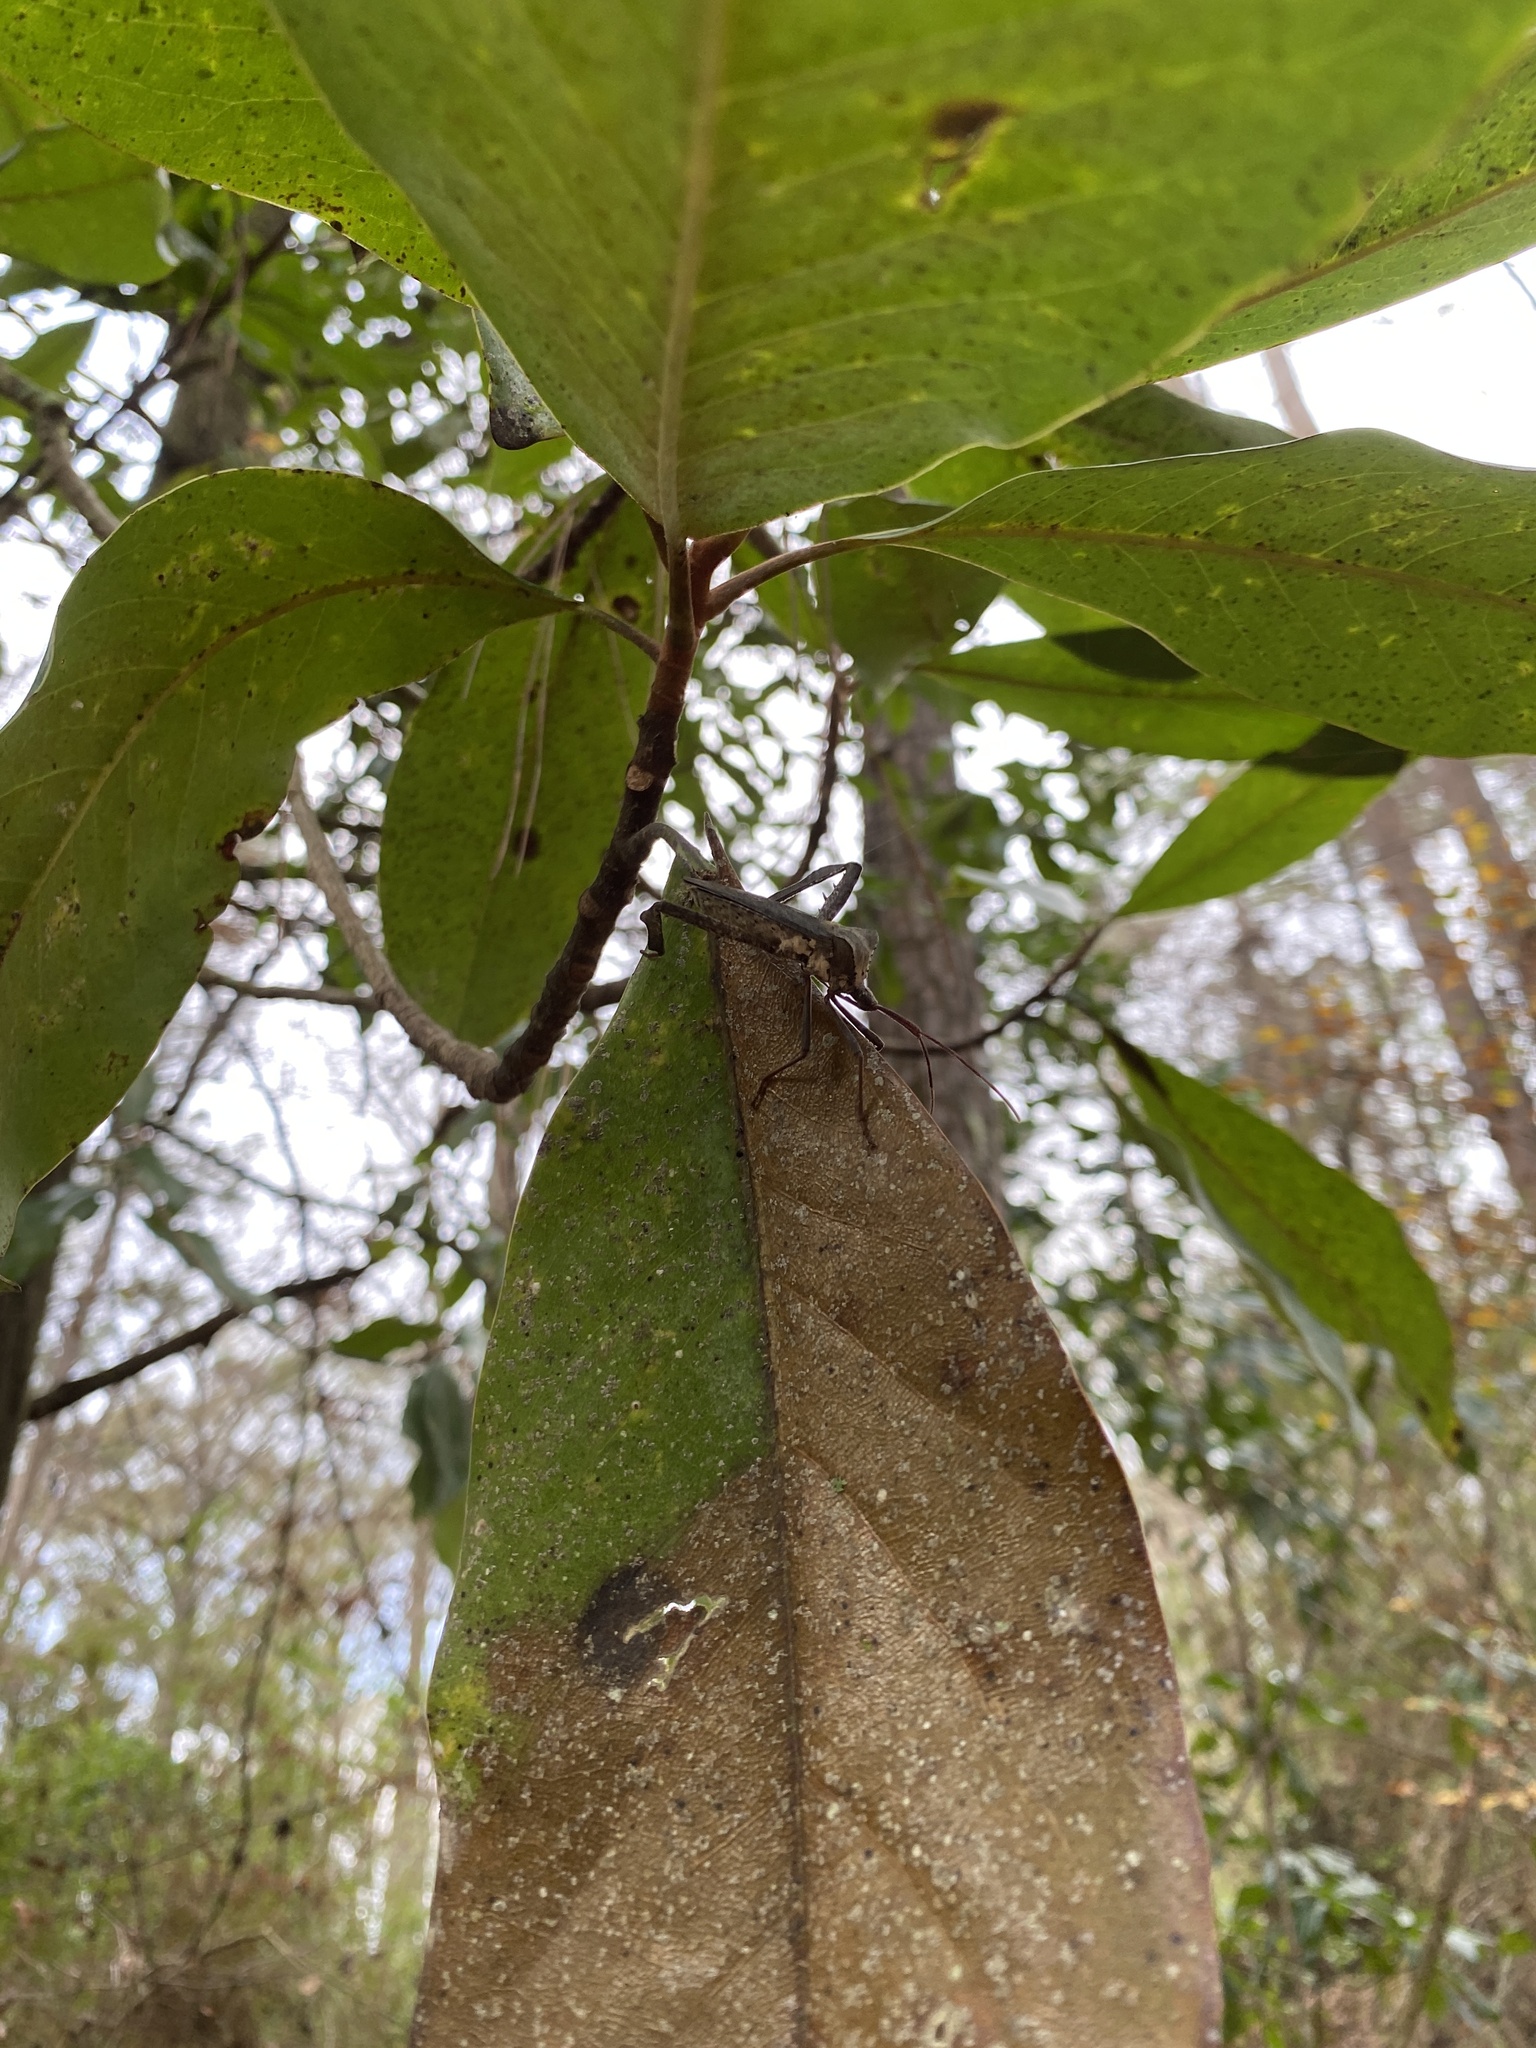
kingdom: Animalia
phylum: Arthropoda
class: Insecta
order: Hemiptera
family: Coreidae
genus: Acanthocephala
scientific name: Acanthocephala declivis
